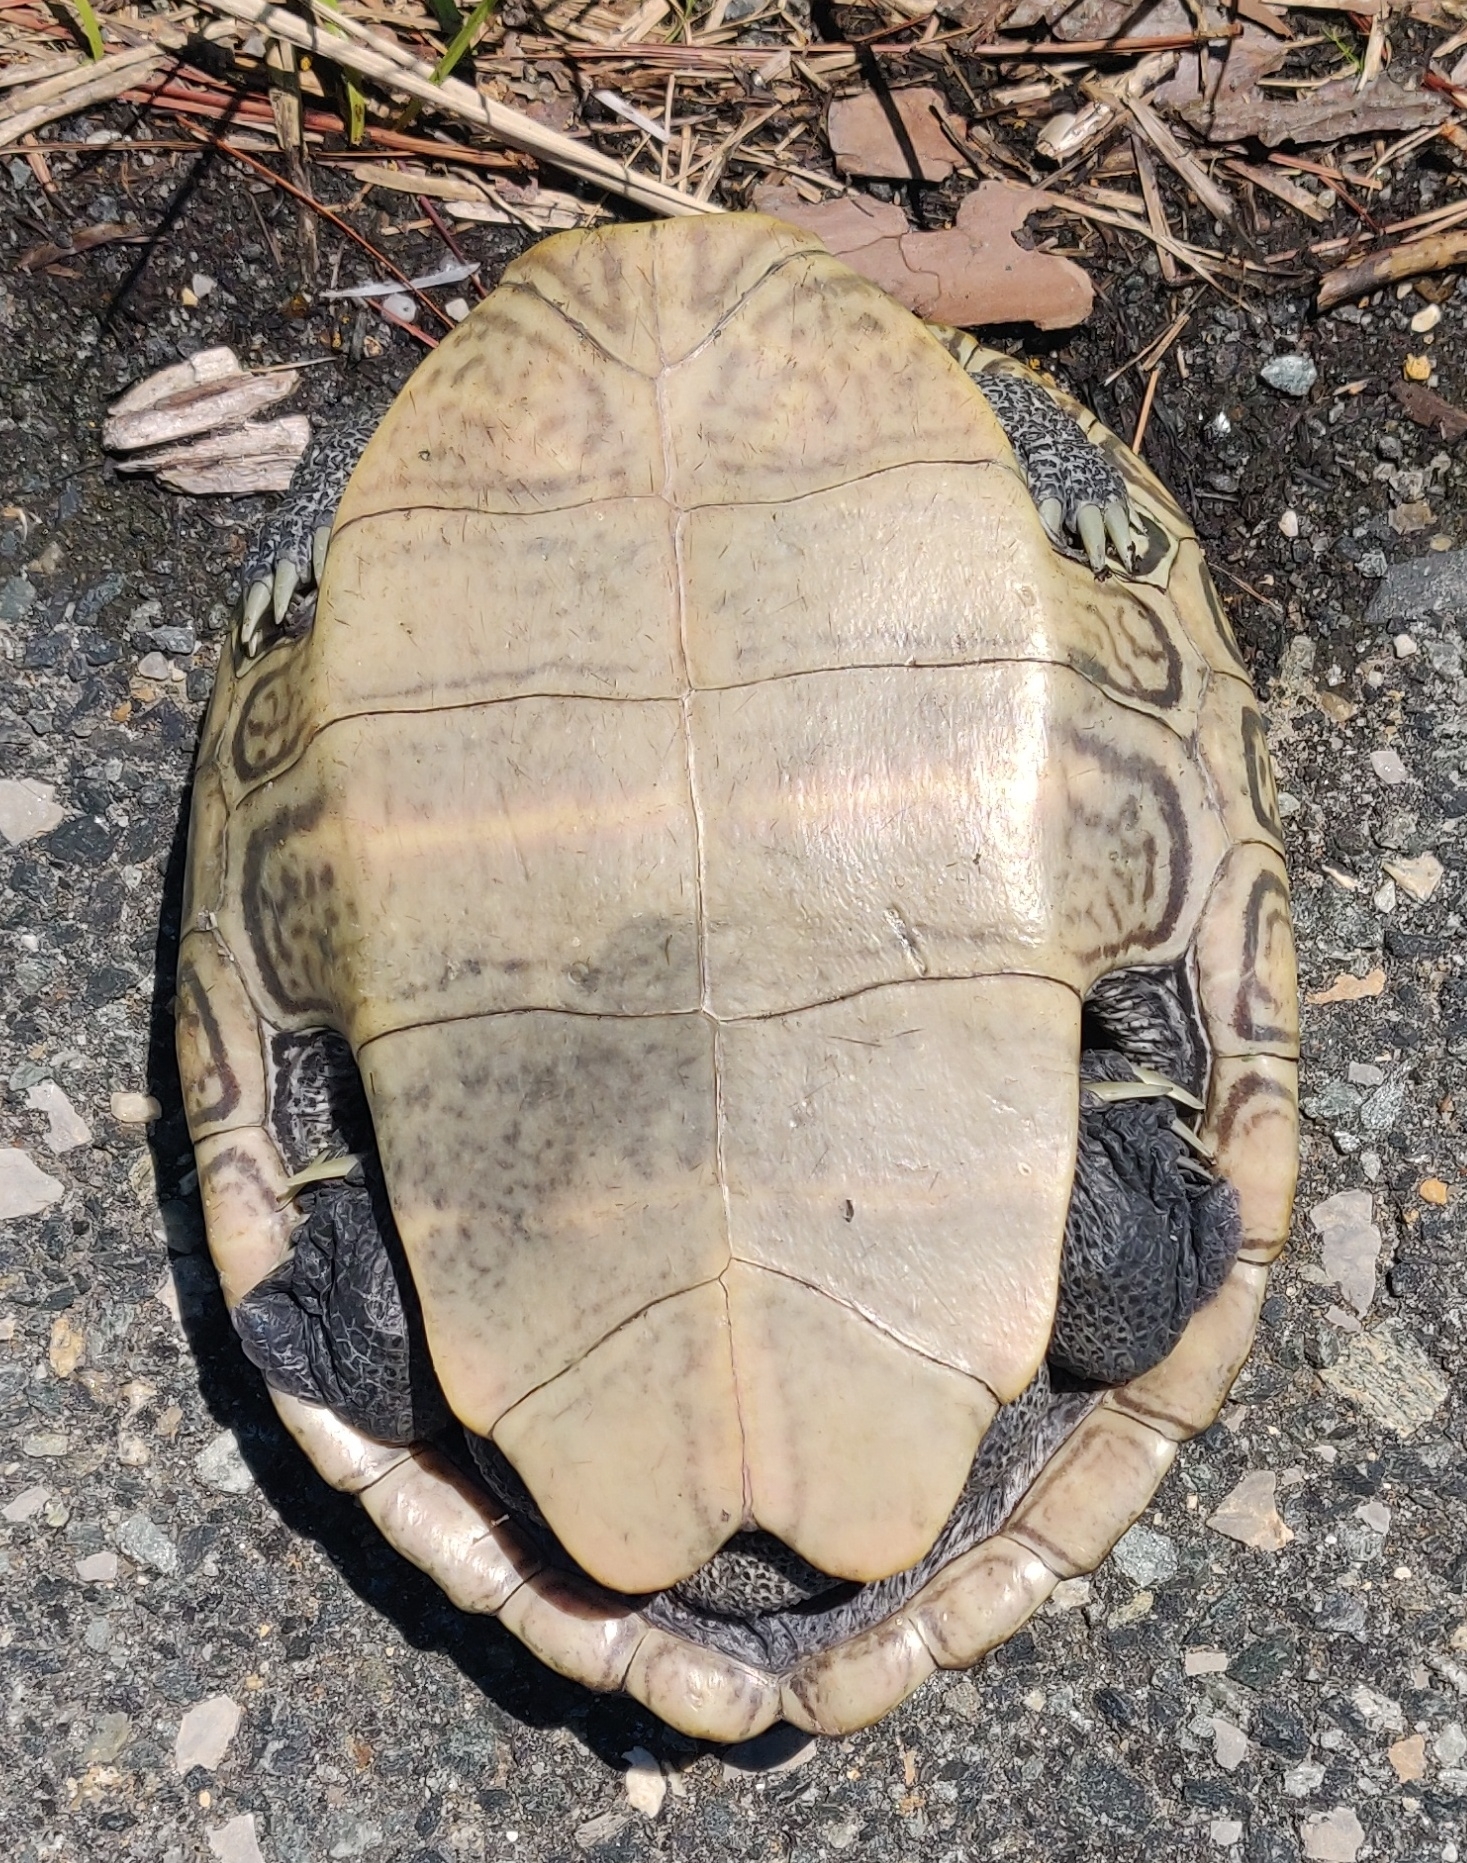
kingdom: Animalia
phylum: Chordata
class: Testudines
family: Emydidae
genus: Malaclemys
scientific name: Malaclemys terrapin
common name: Diamondback terrapin
